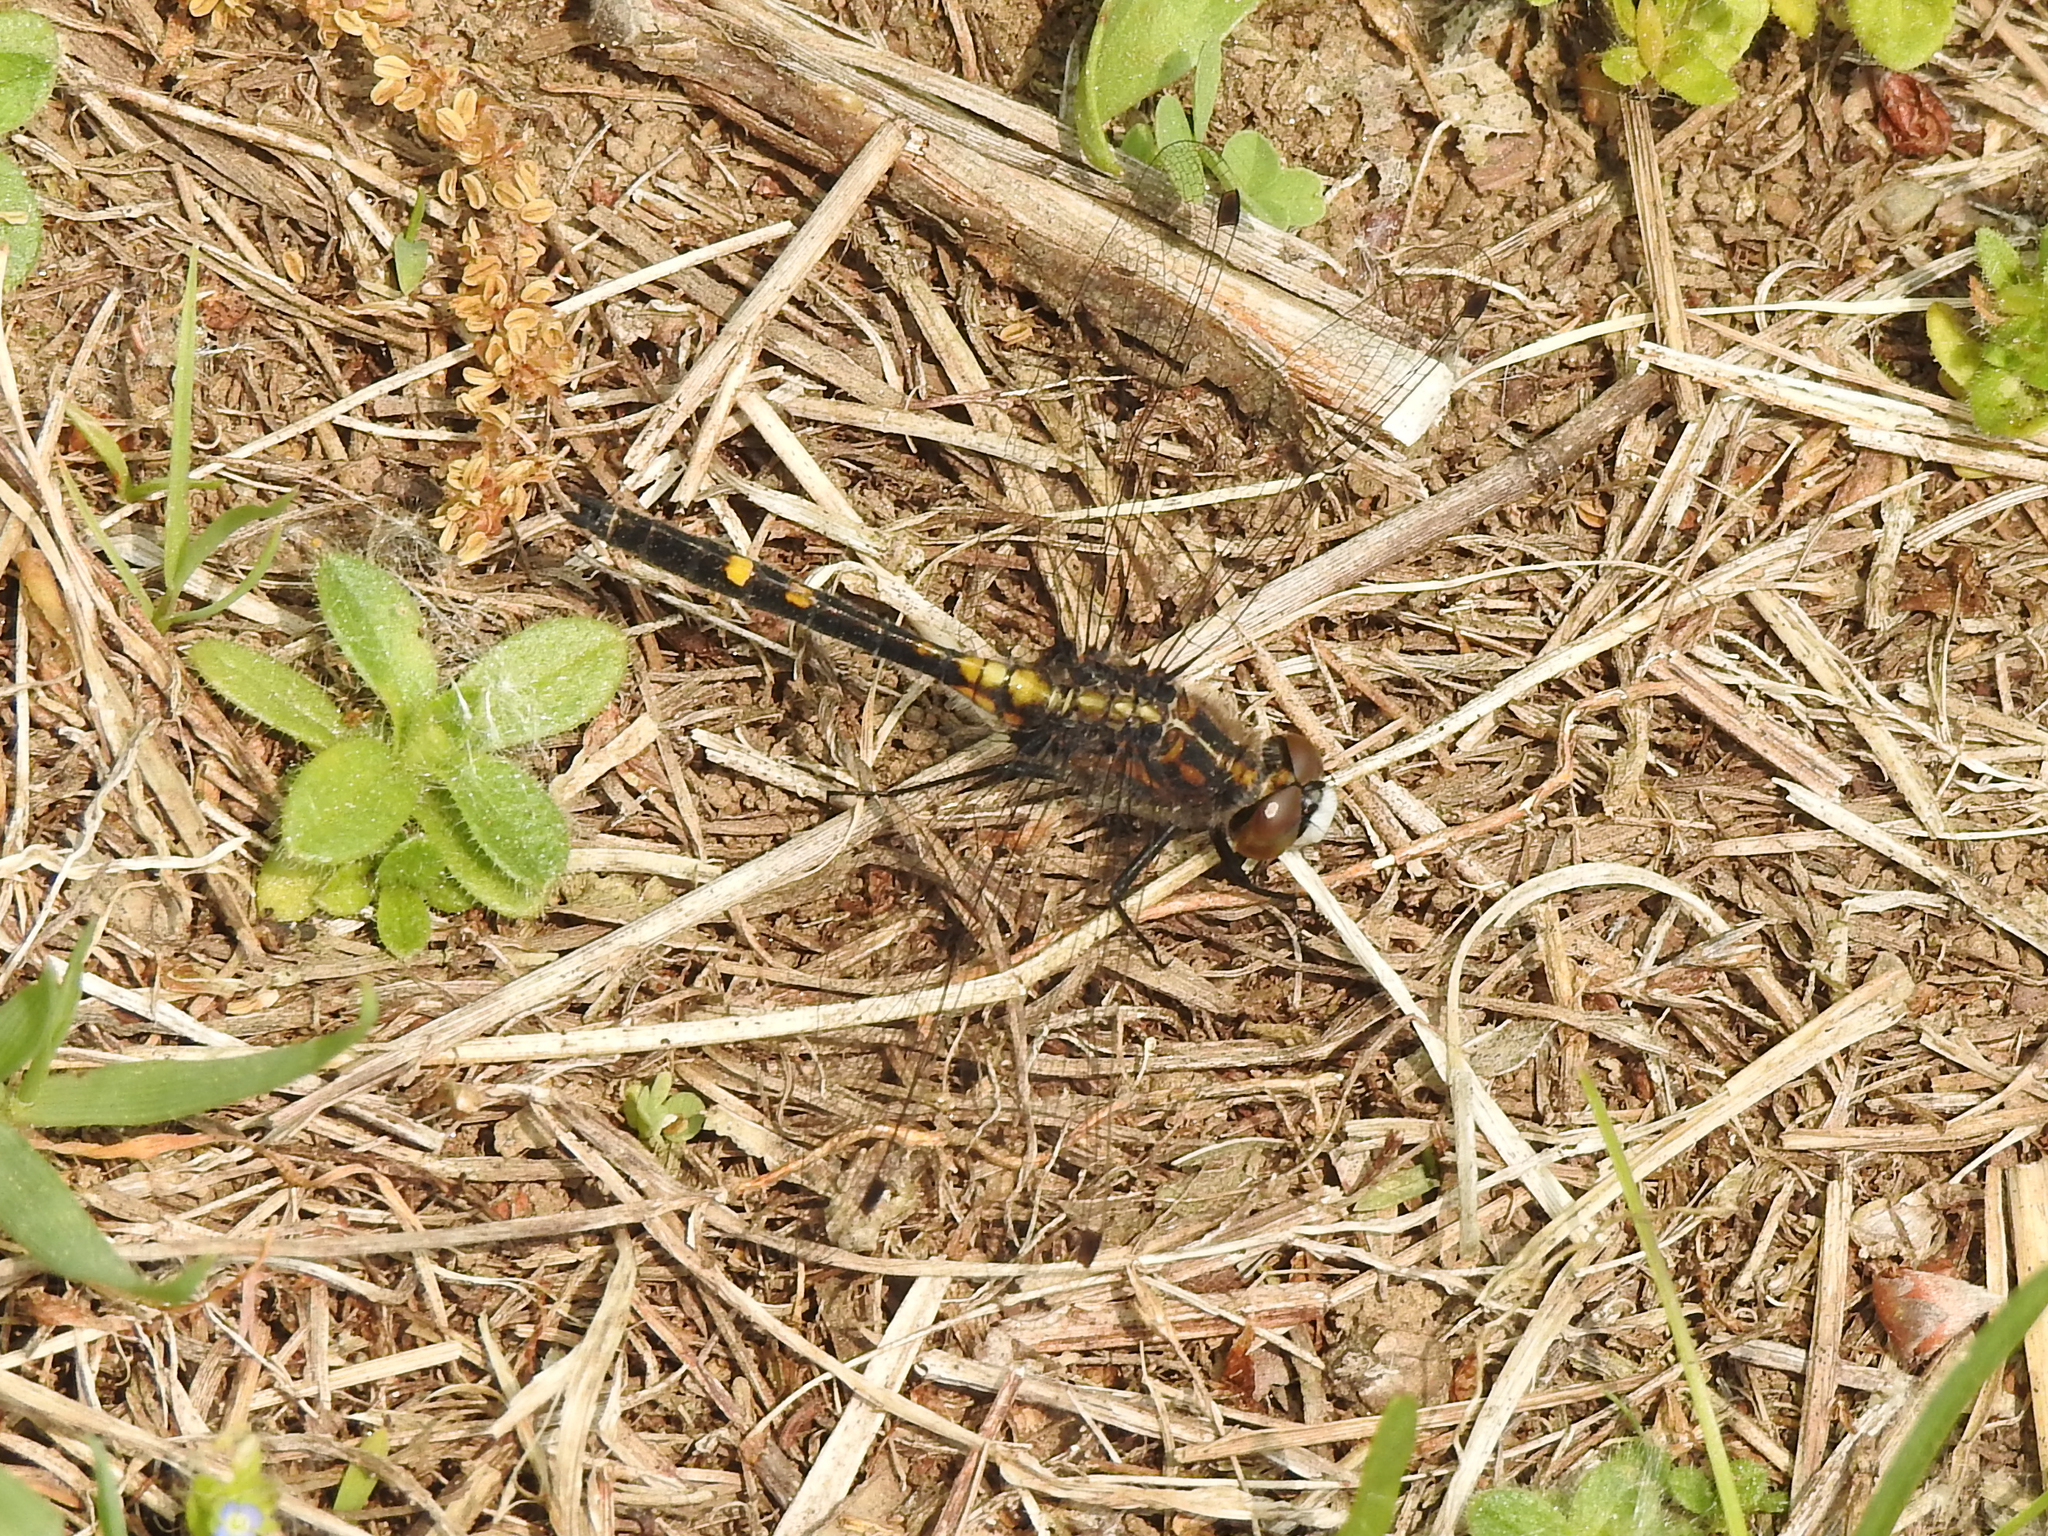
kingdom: Animalia
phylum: Arthropoda
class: Insecta
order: Odonata
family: Libellulidae
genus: Leucorrhinia
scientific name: Leucorrhinia intacta
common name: Dot-tailed whiteface
